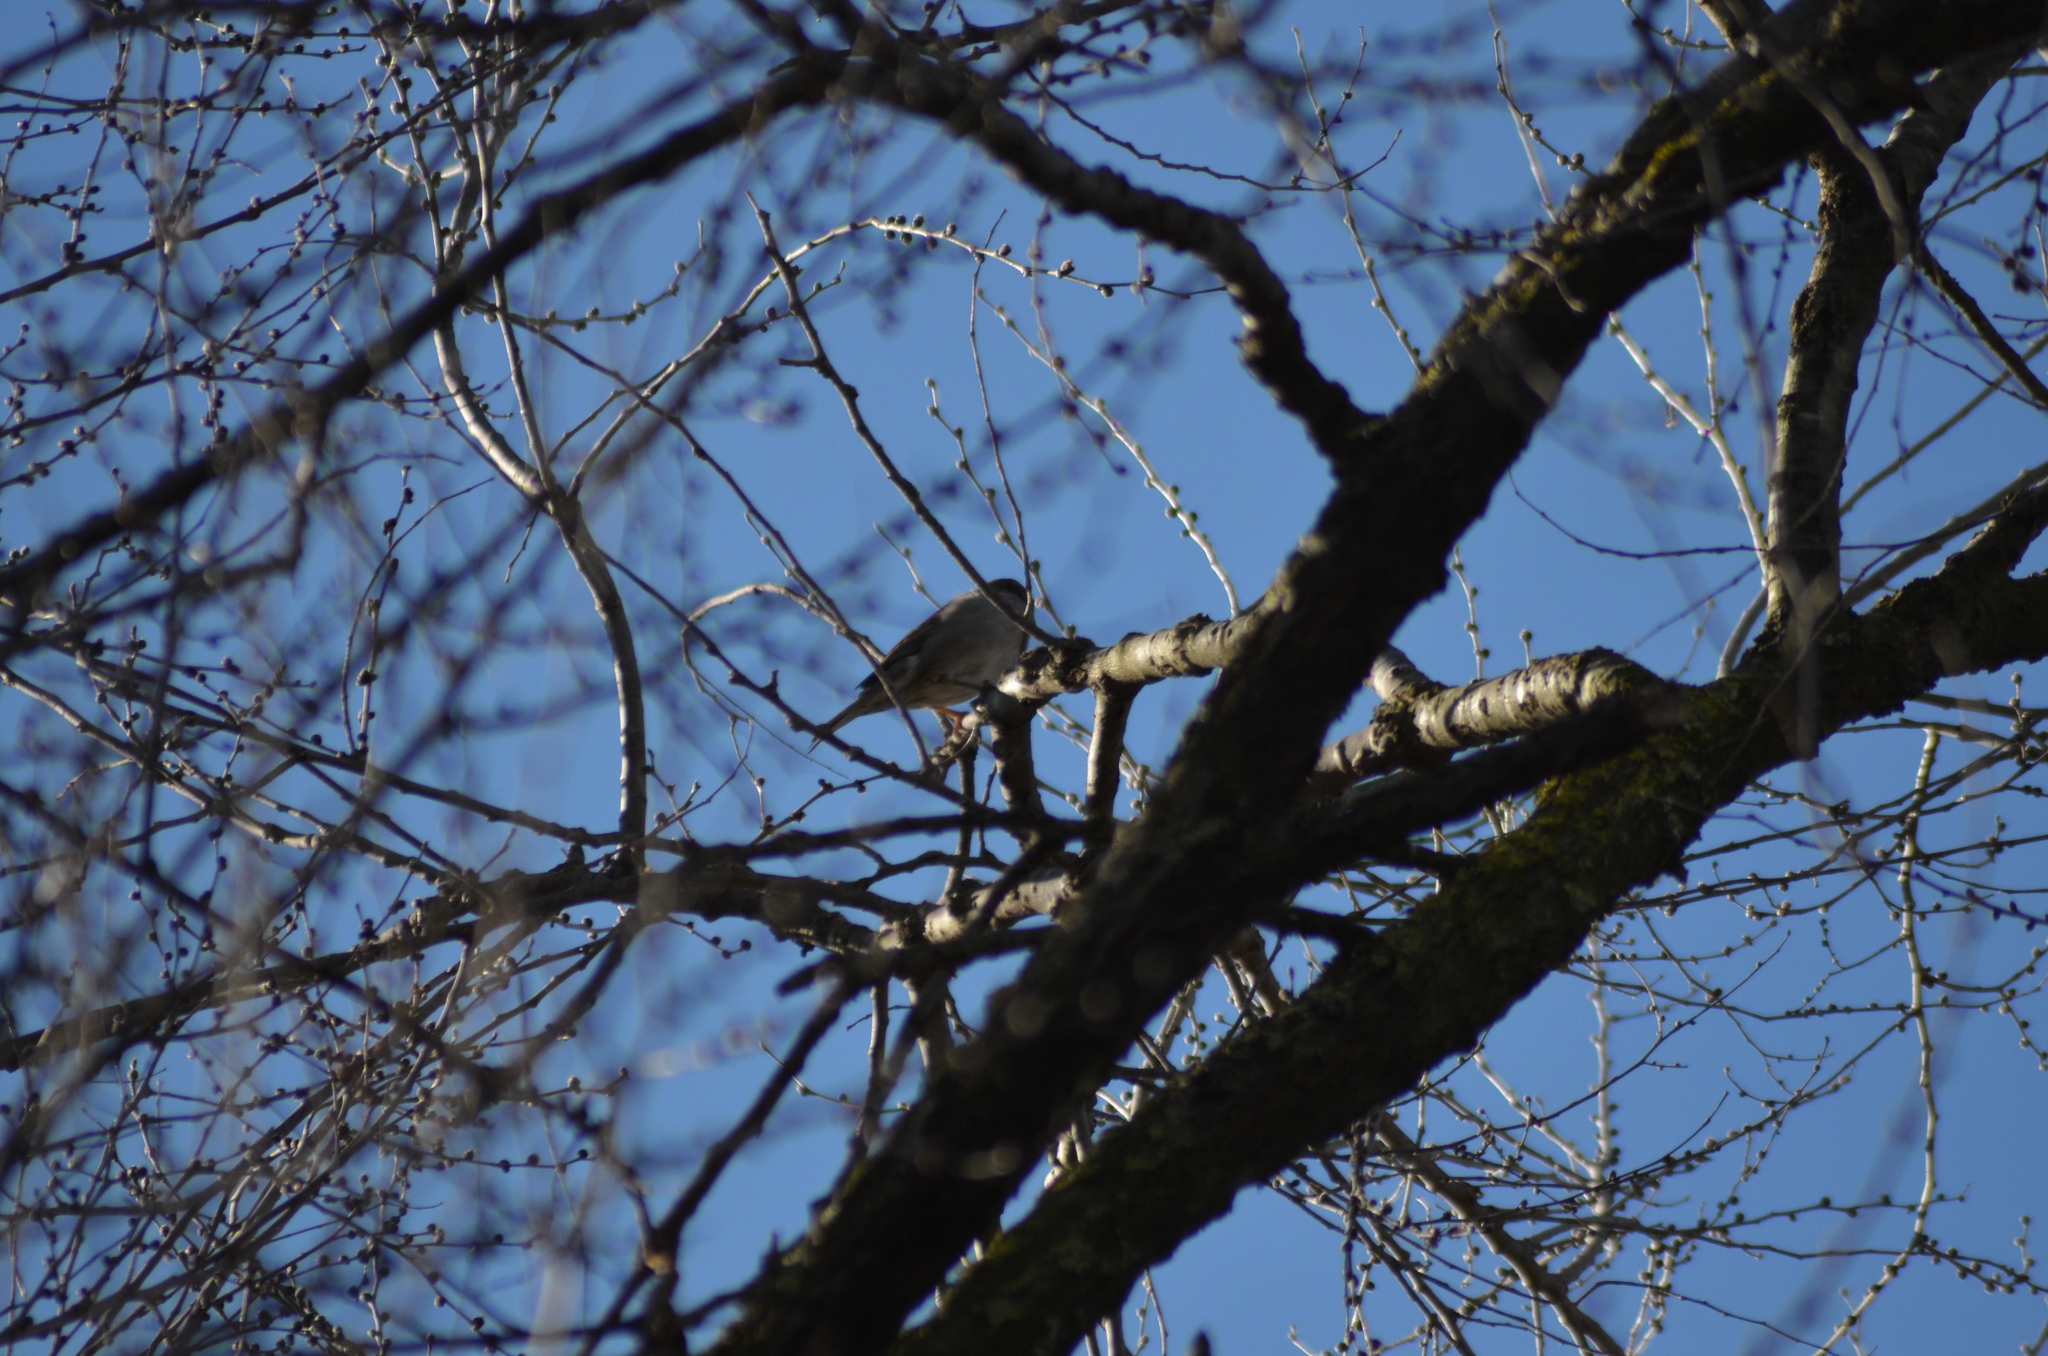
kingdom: Animalia
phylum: Chordata
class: Aves
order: Passeriformes
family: Passeridae
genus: Passer
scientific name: Passer domesticus
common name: House sparrow
